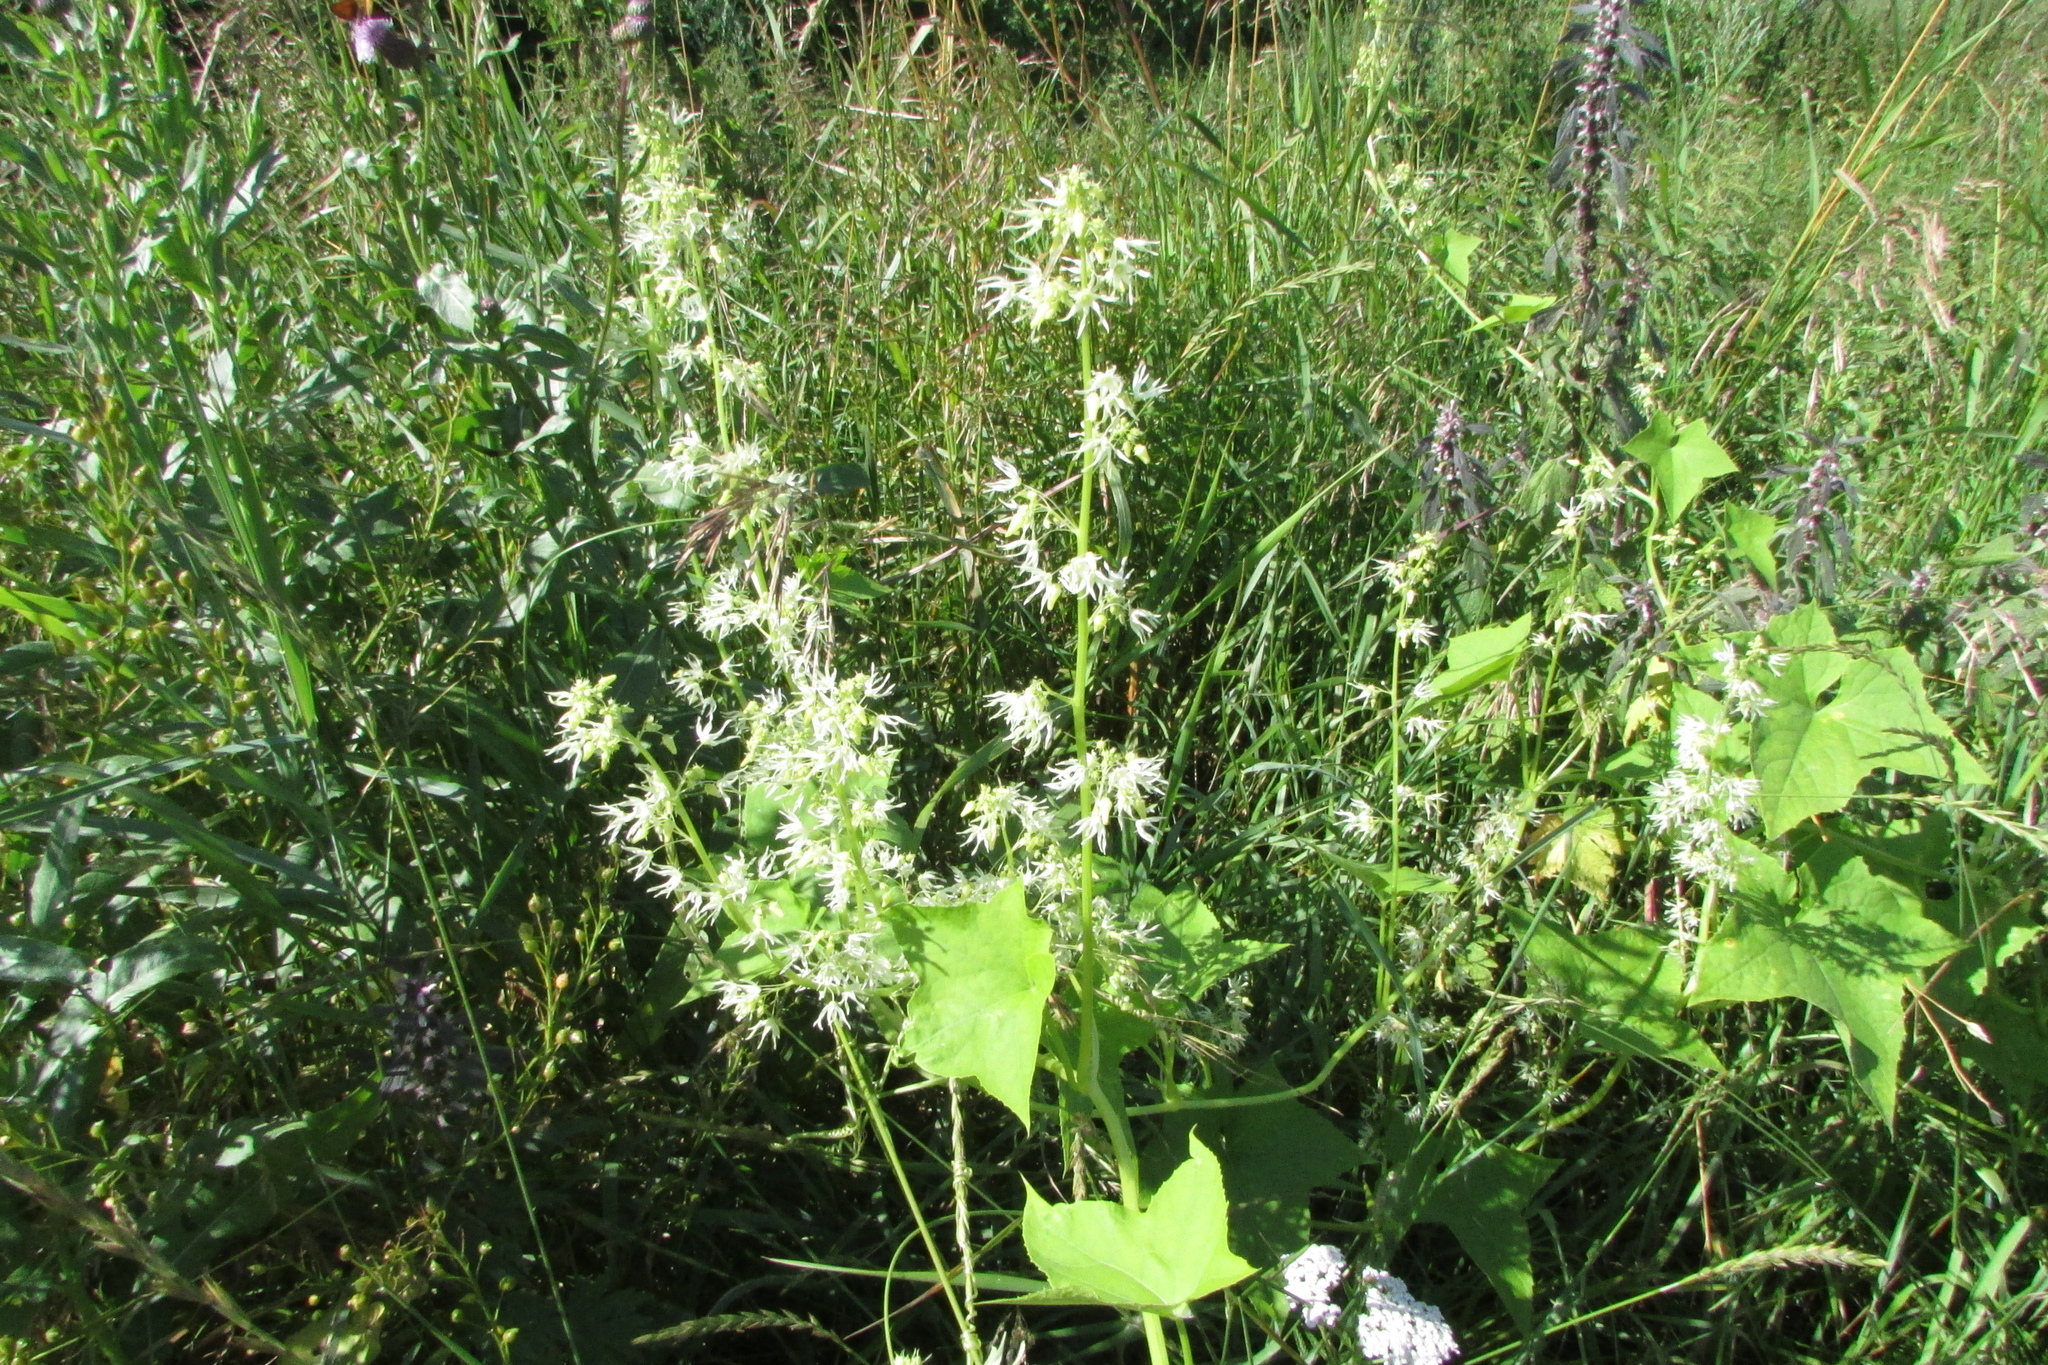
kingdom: Plantae
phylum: Tracheophyta
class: Magnoliopsida
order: Cucurbitales
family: Cucurbitaceae
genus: Echinocystis
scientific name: Echinocystis lobata
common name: Wild cucumber
